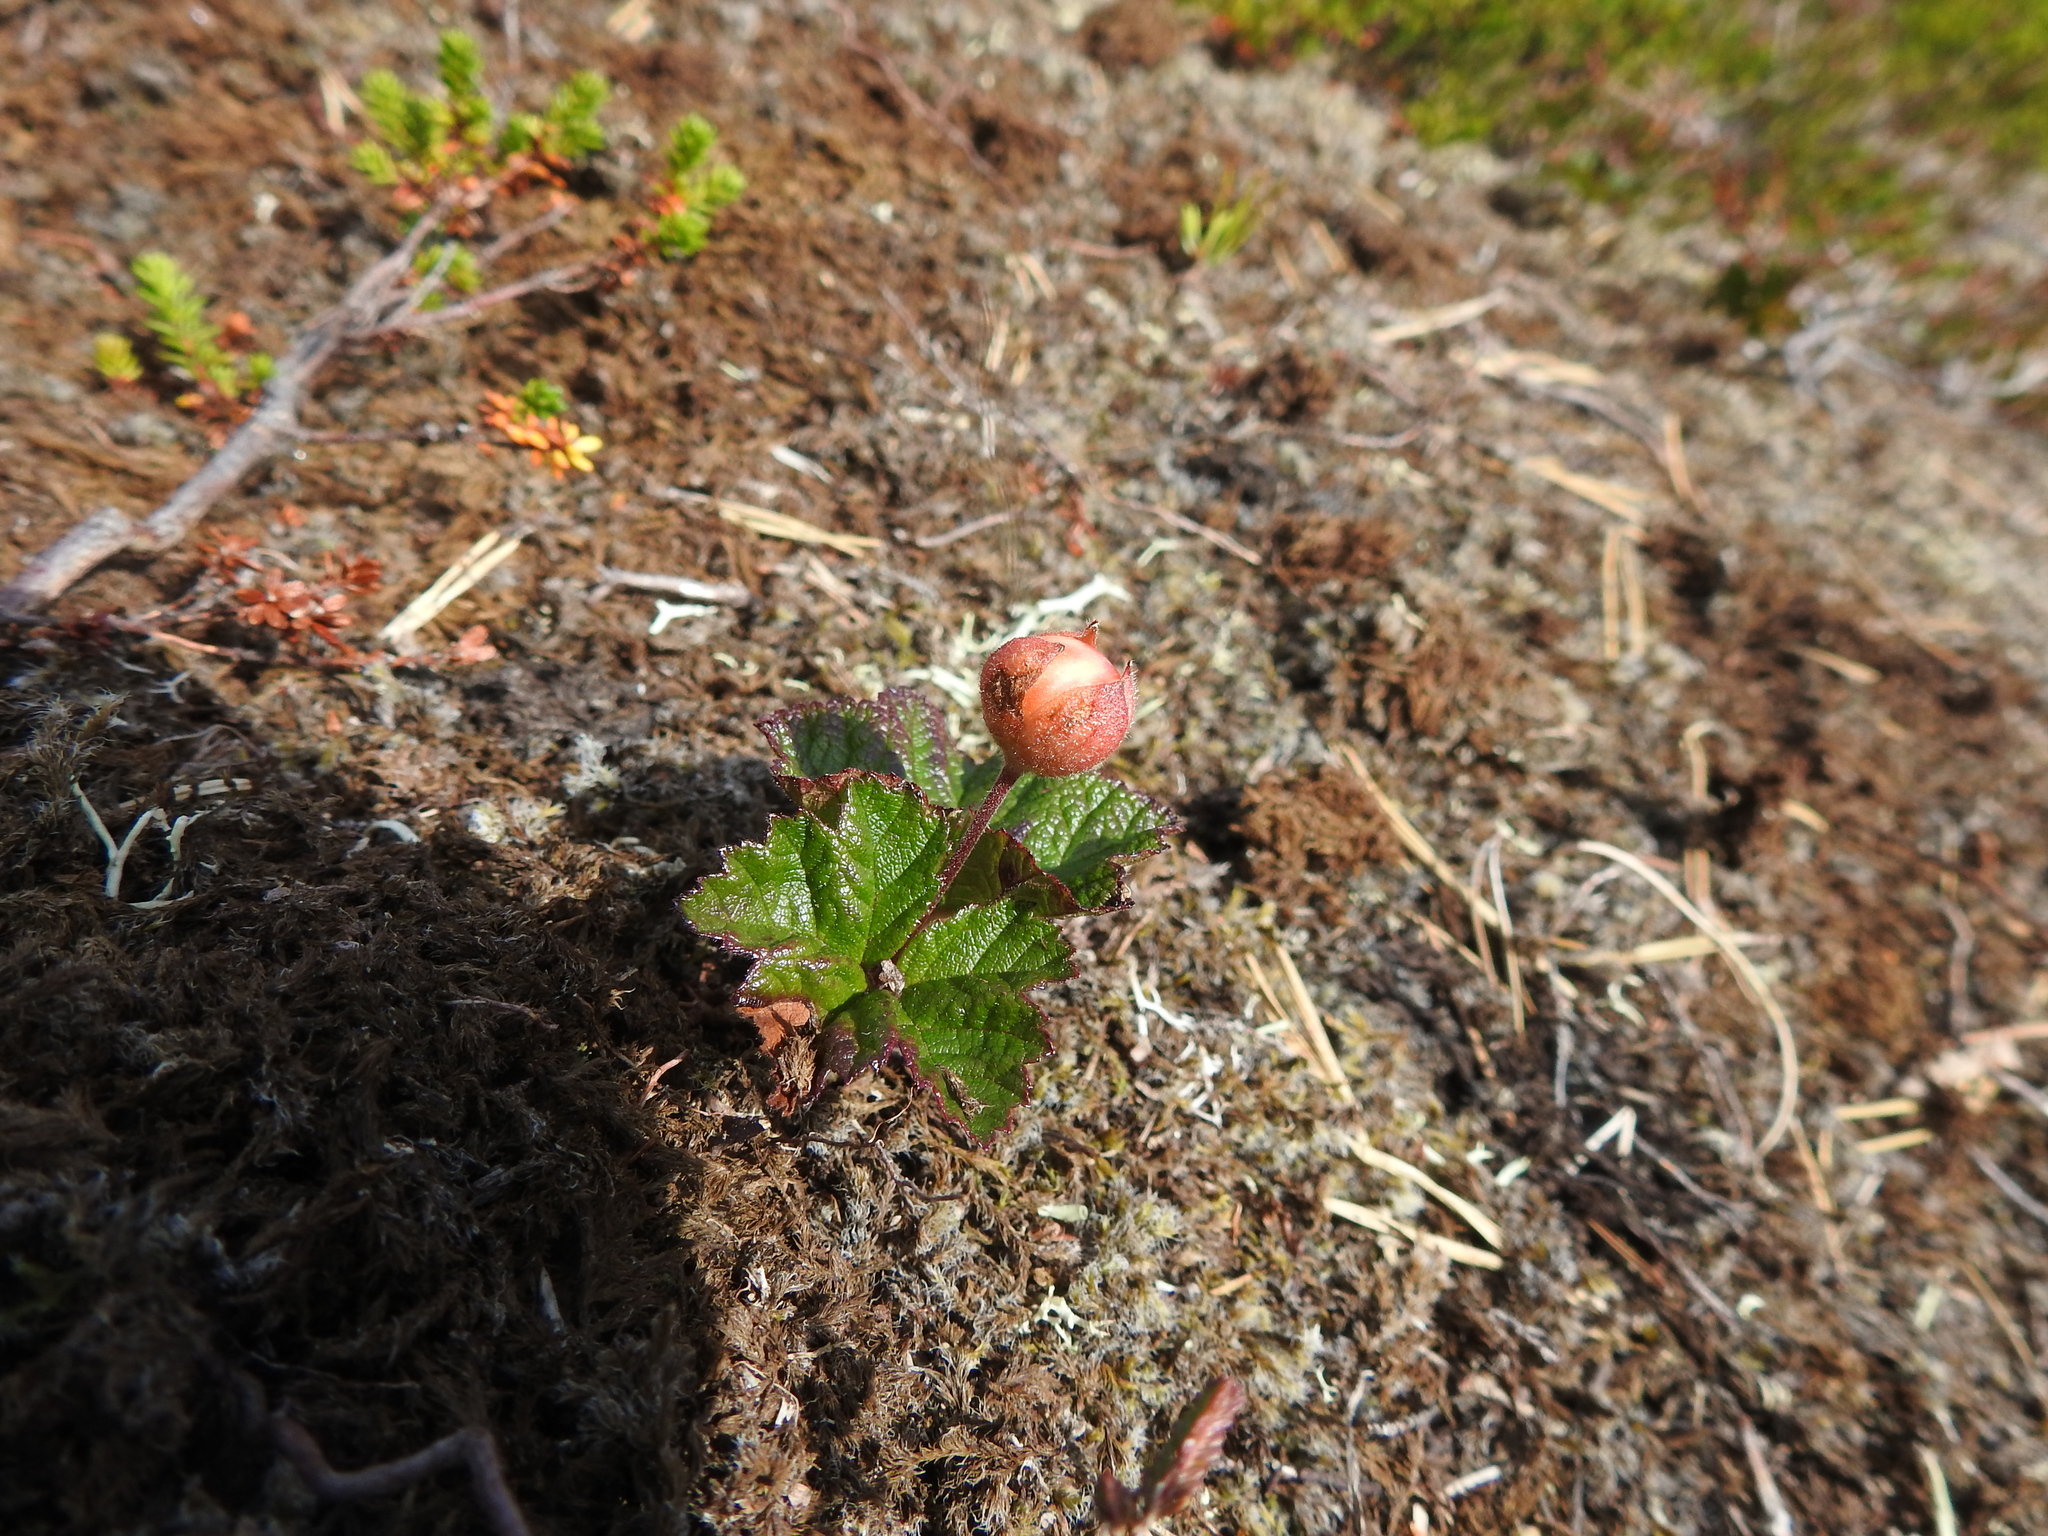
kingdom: Plantae
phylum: Tracheophyta
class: Magnoliopsida
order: Rosales
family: Rosaceae
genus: Rubus
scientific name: Rubus chamaemorus
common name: Cloudberry
